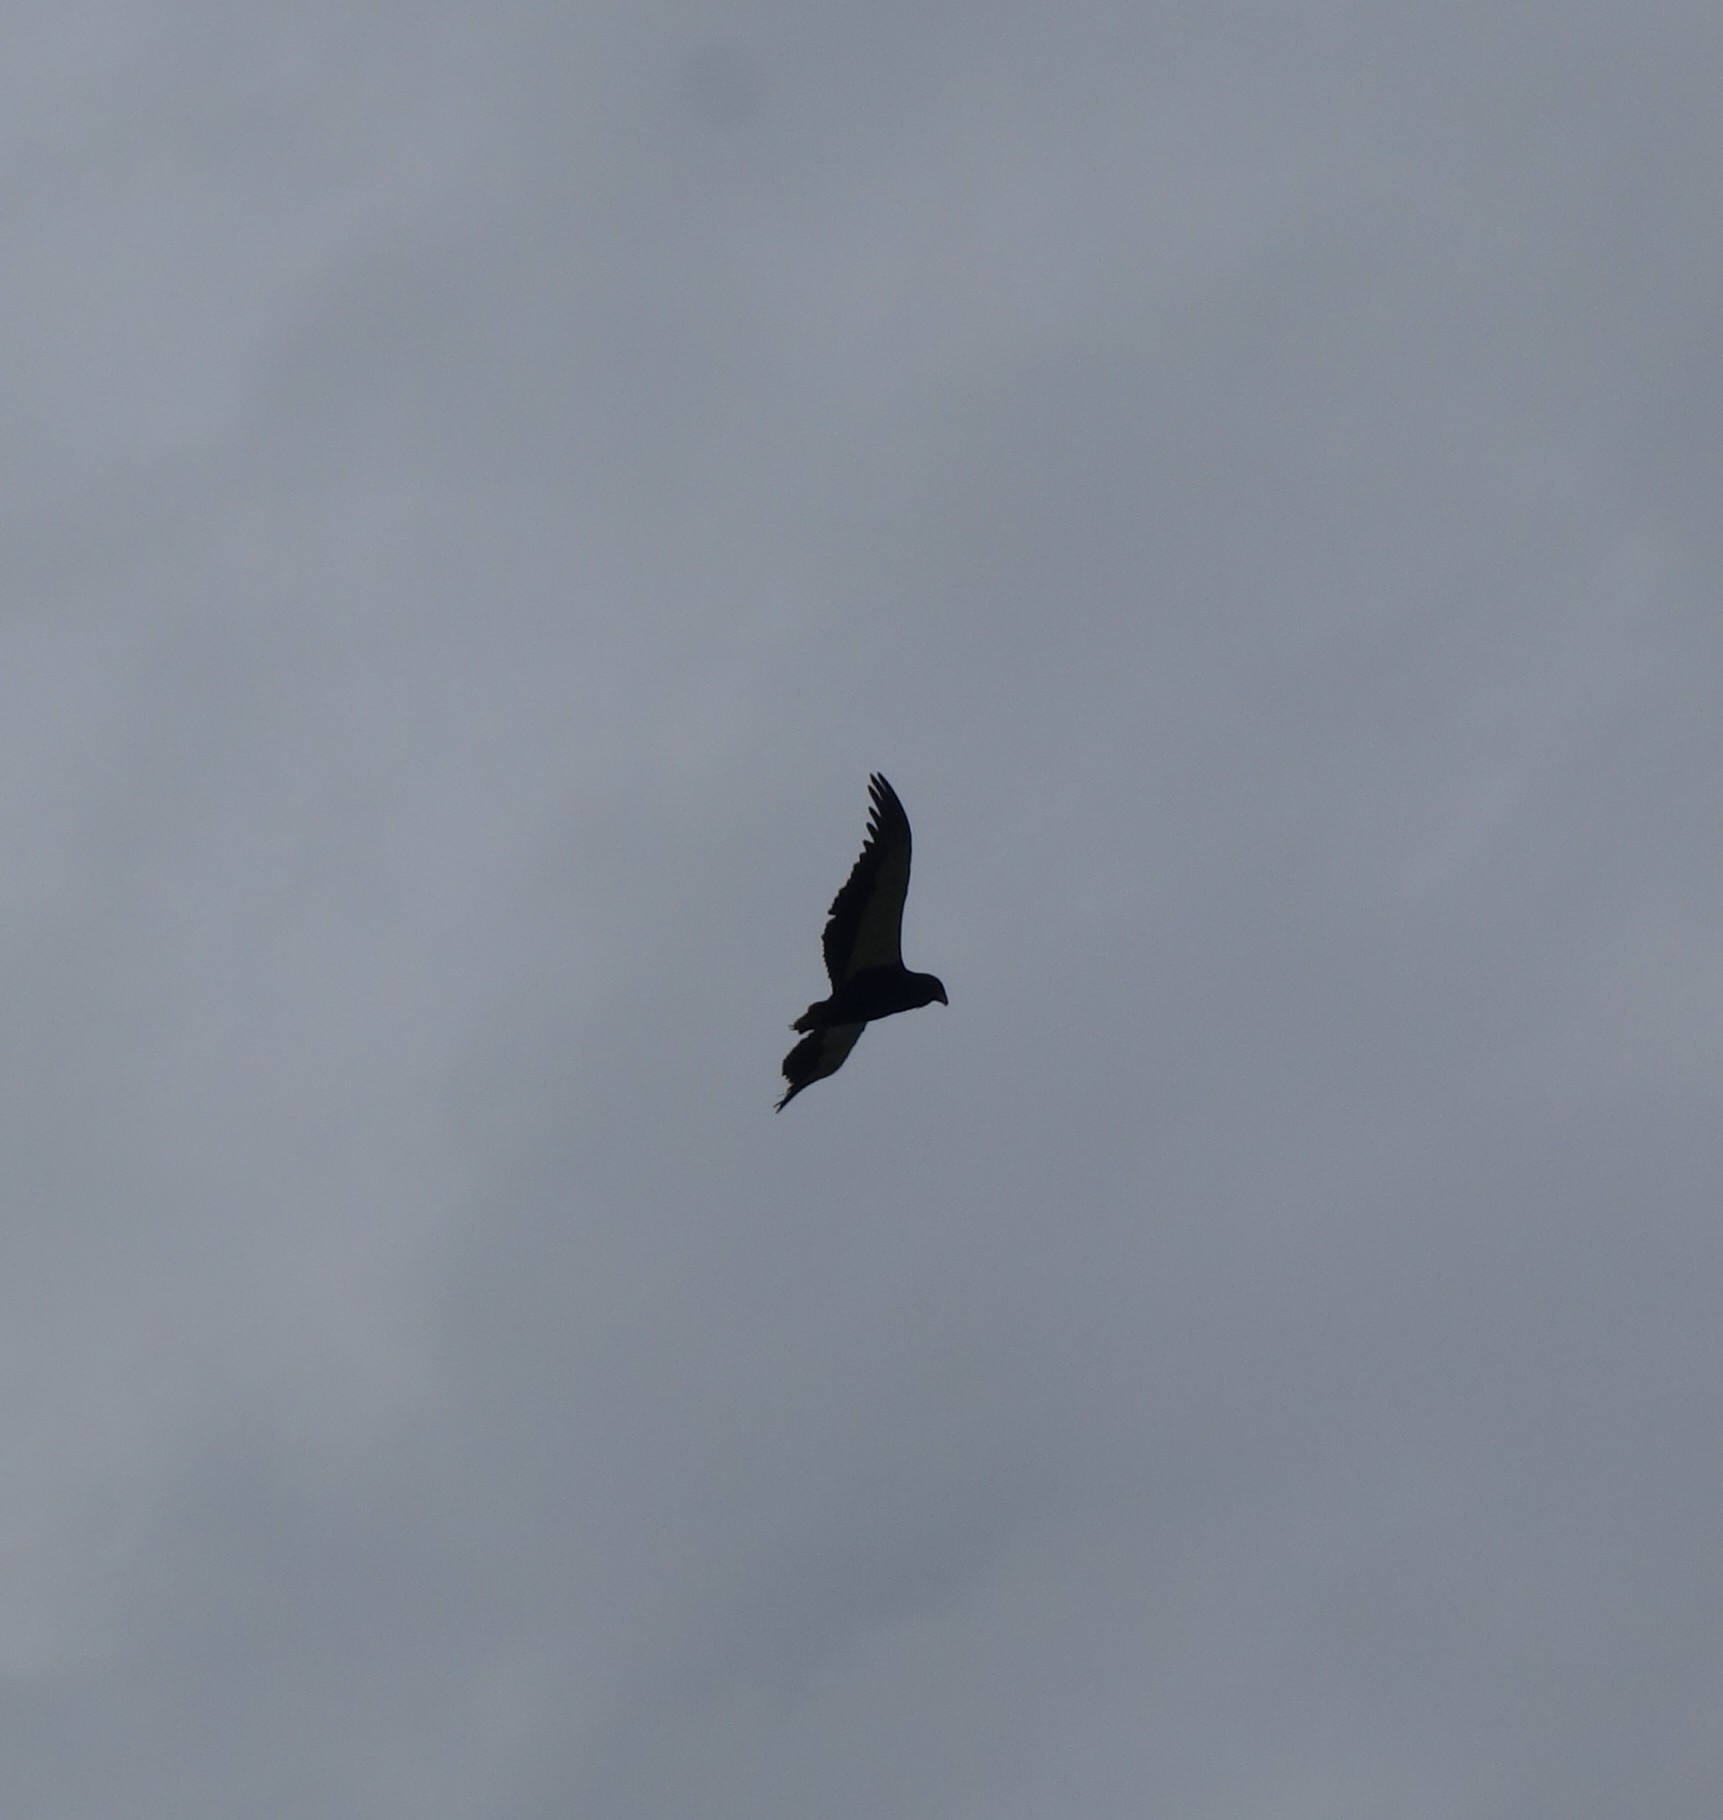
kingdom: Animalia
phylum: Chordata
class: Aves
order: Accipitriformes
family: Accipitridae
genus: Terathopius
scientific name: Terathopius ecaudatus
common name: Bateleur
